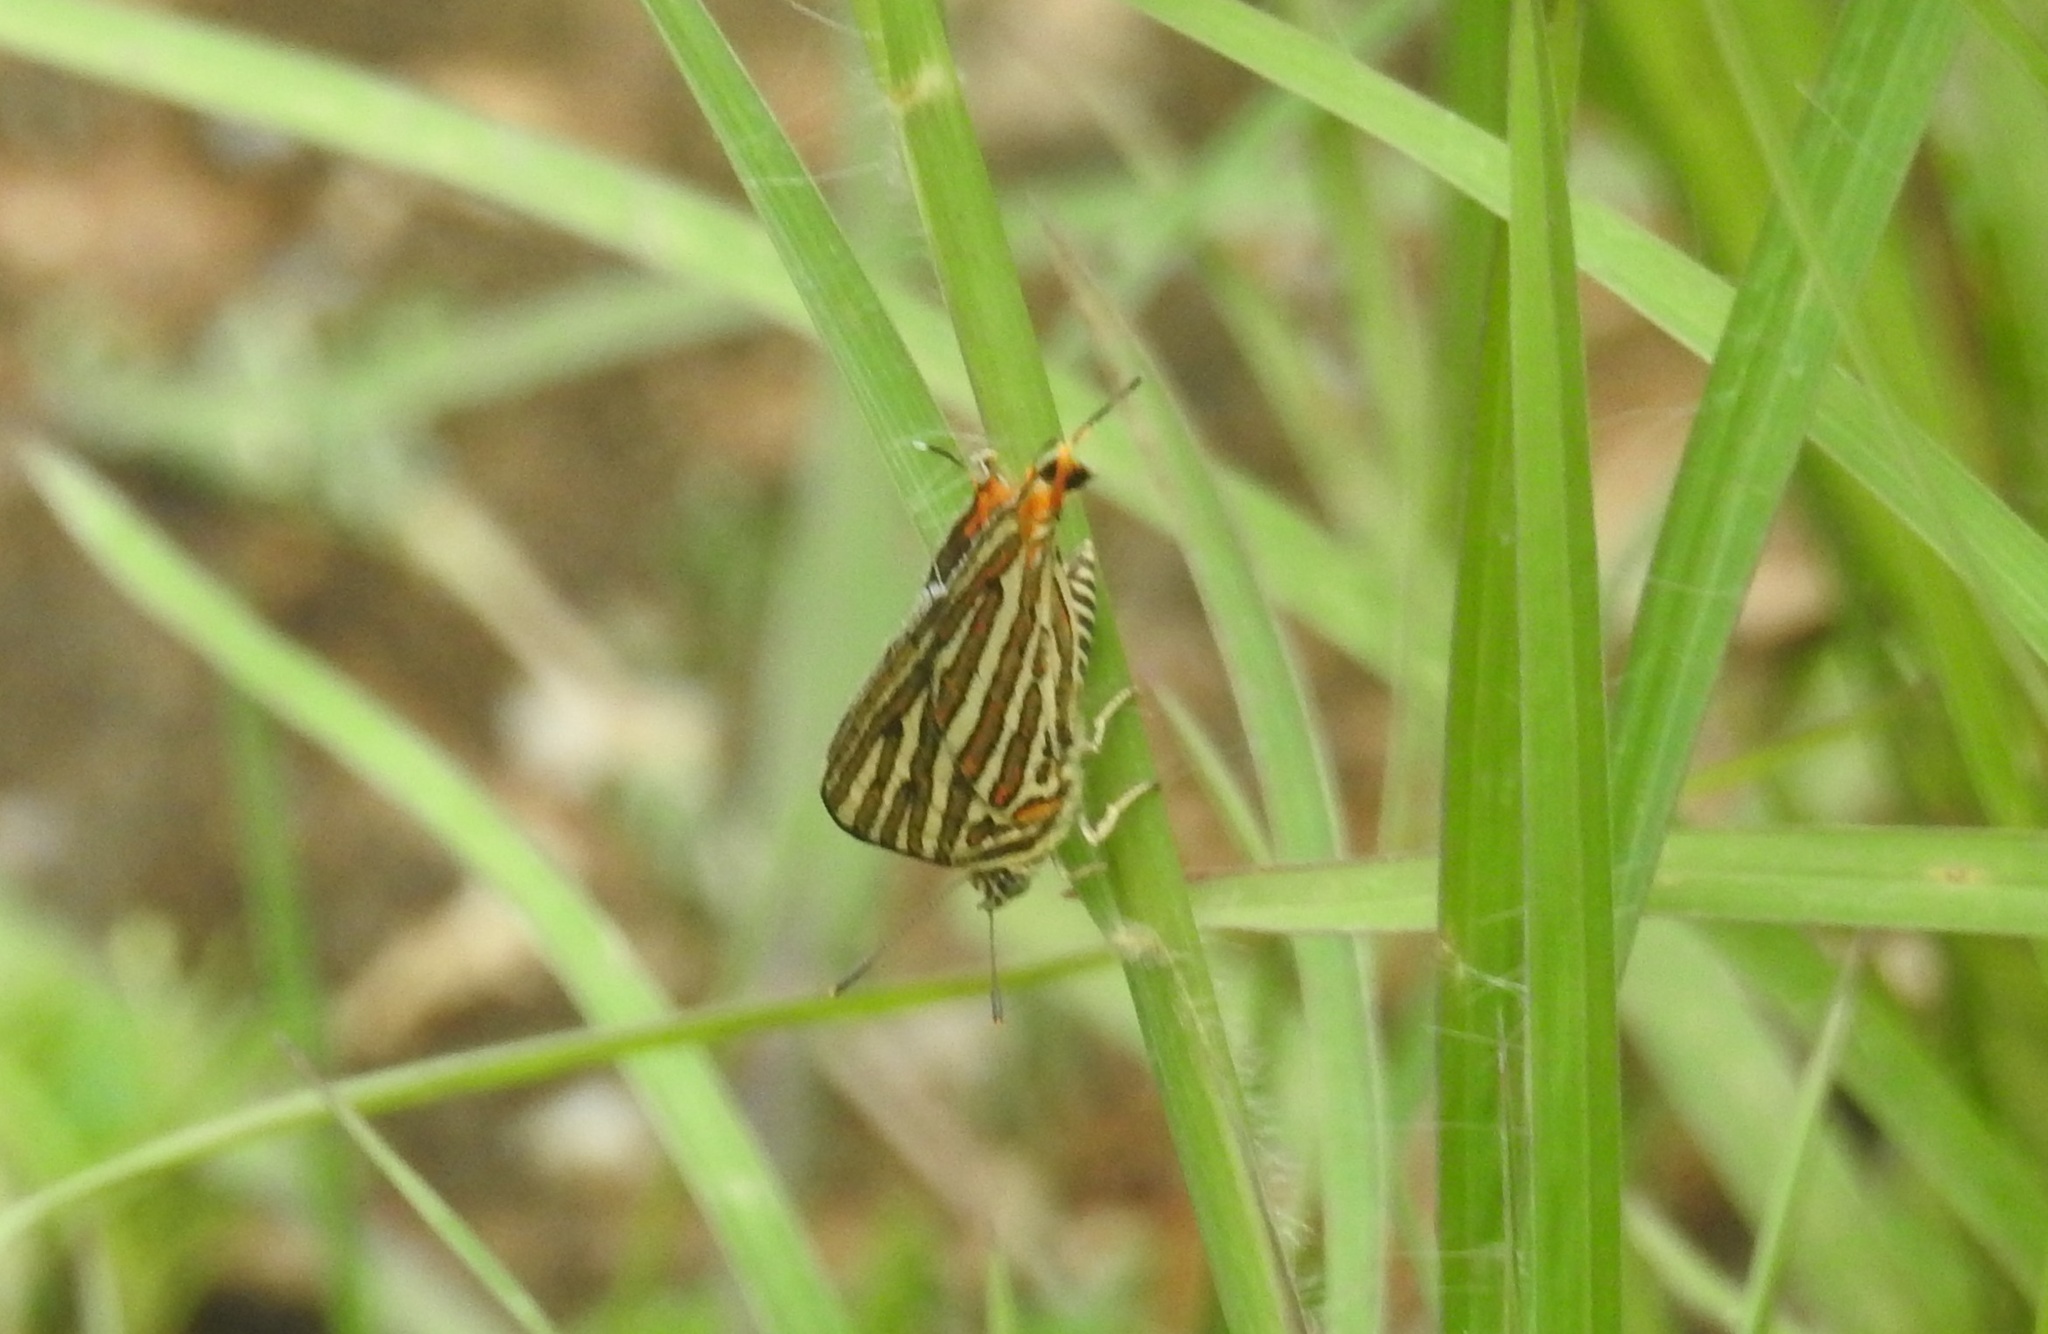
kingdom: Animalia
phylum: Arthropoda
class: Insecta
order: Lepidoptera
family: Lycaenidae
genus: Cigaritis
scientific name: Cigaritis vulcanus
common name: Common silverline
